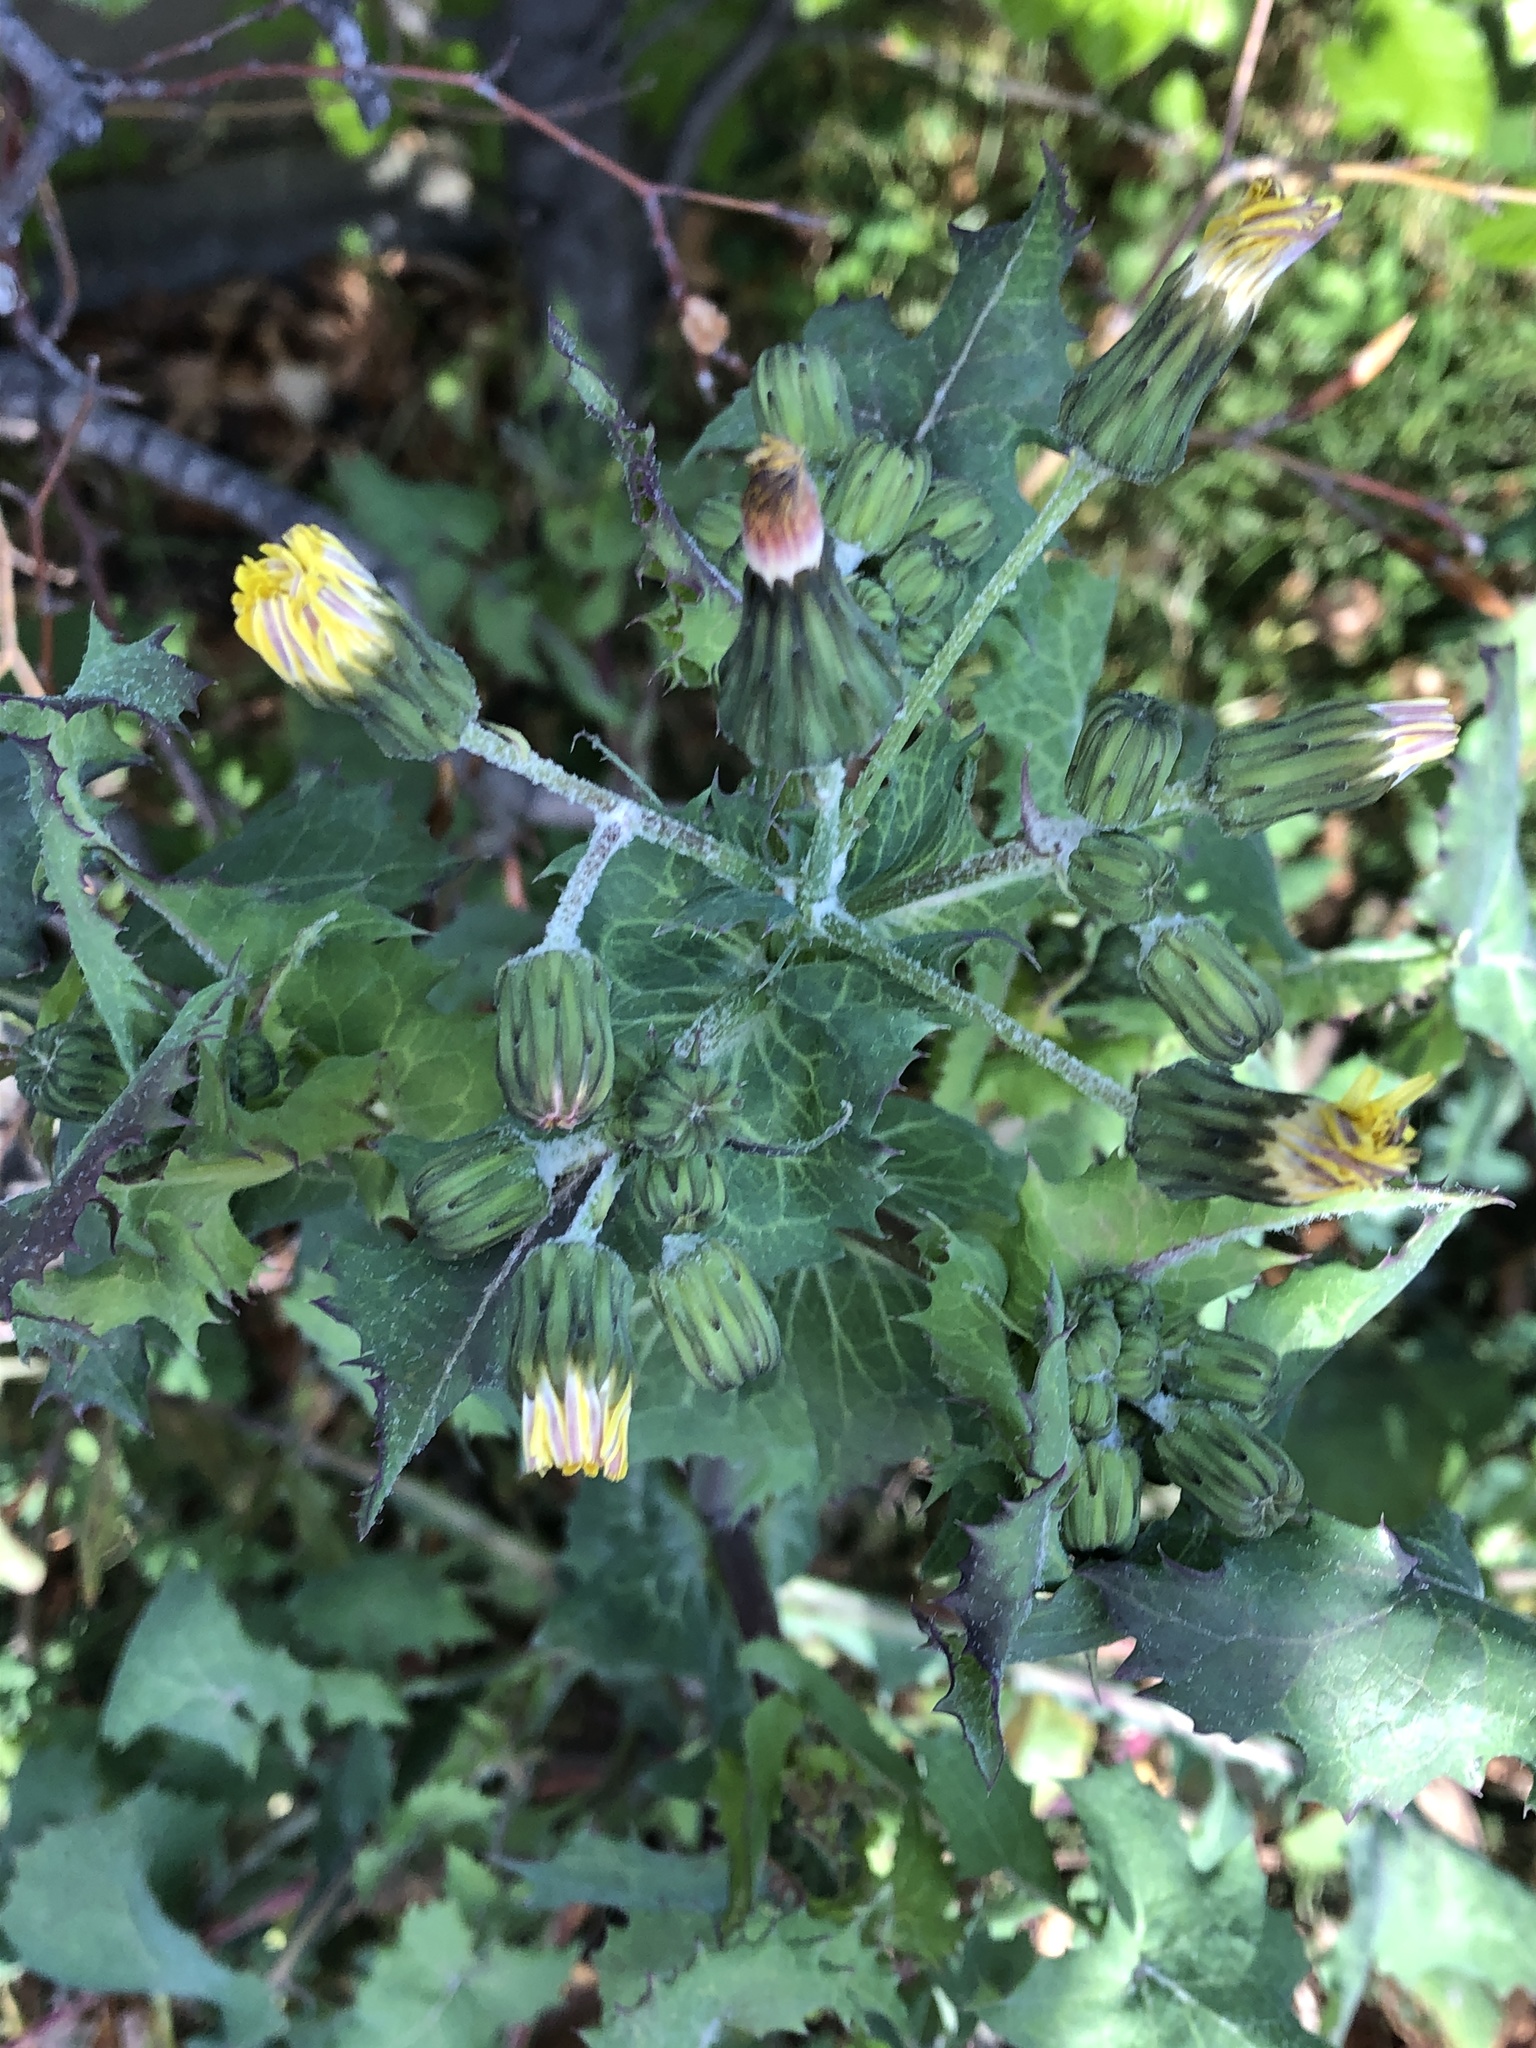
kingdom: Plantae
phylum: Tracheophyta
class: Magnoliopsida
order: Asterales
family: Asteraceae
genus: Sonchus
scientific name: Sonchus oleraceus
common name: Common sowthistle
